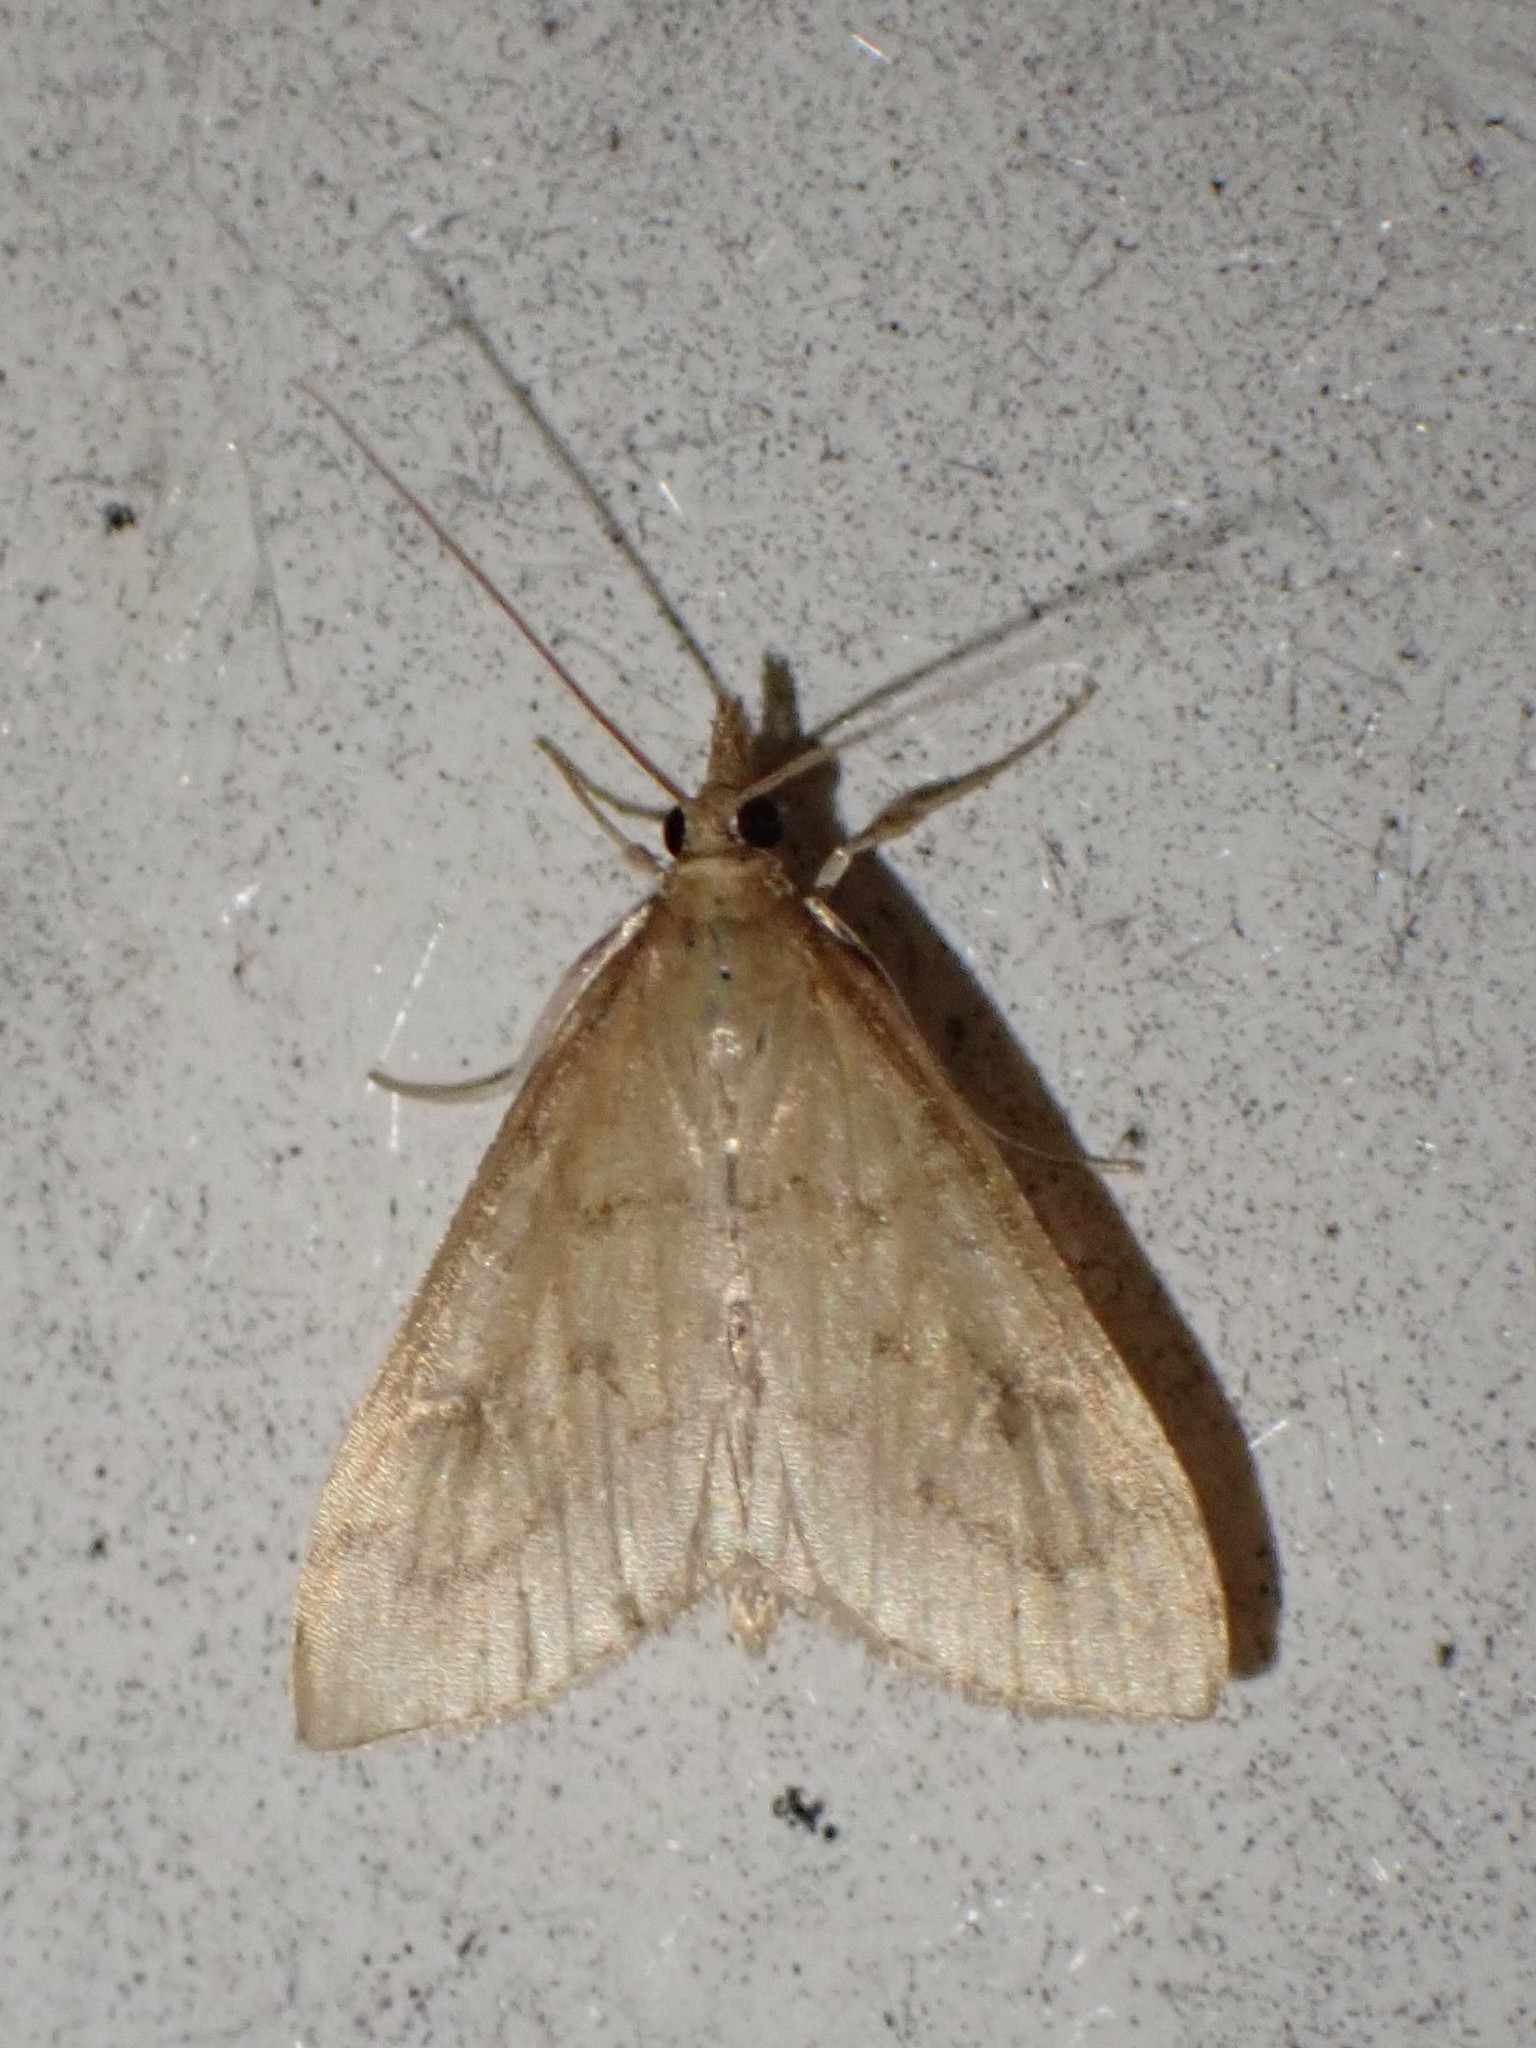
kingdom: Animalia
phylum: Arthropoda
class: Insecta
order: Lepidoptera
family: Crambidae
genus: Udea
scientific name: Udea rubigalis
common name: Celery leaftier moth
